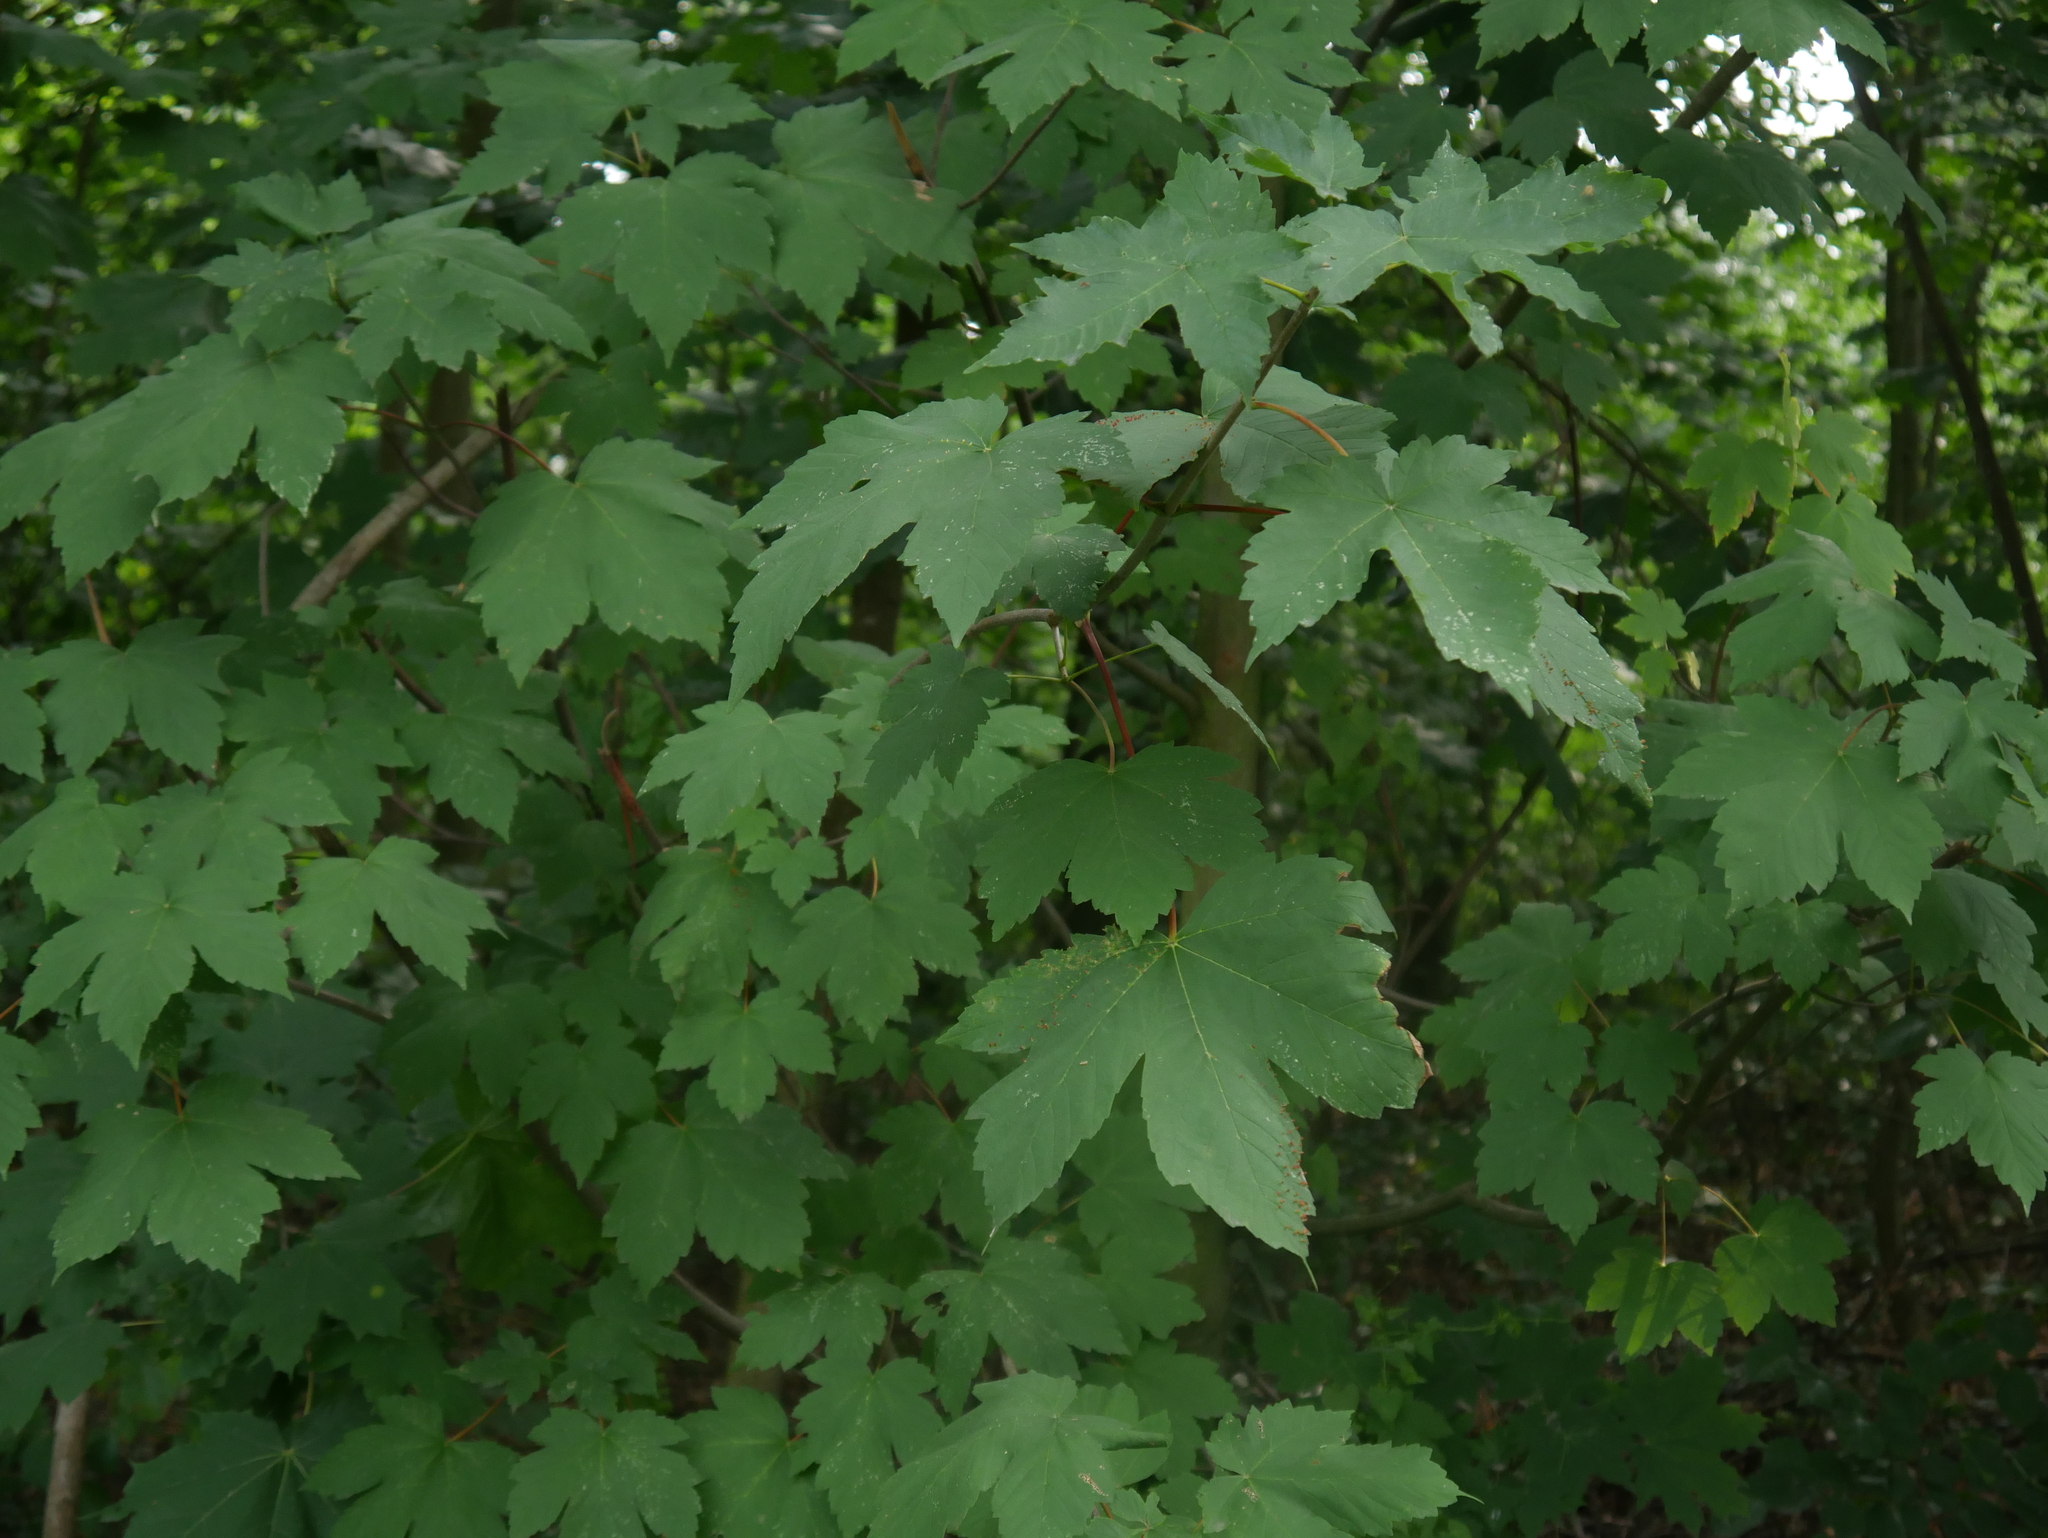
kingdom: Plantae
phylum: Tracheophyta
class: Magnoliopsida
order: Sapindales
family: Sapindaceae
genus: Acer
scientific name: Acer pseudoplatanus
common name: Sycamore
